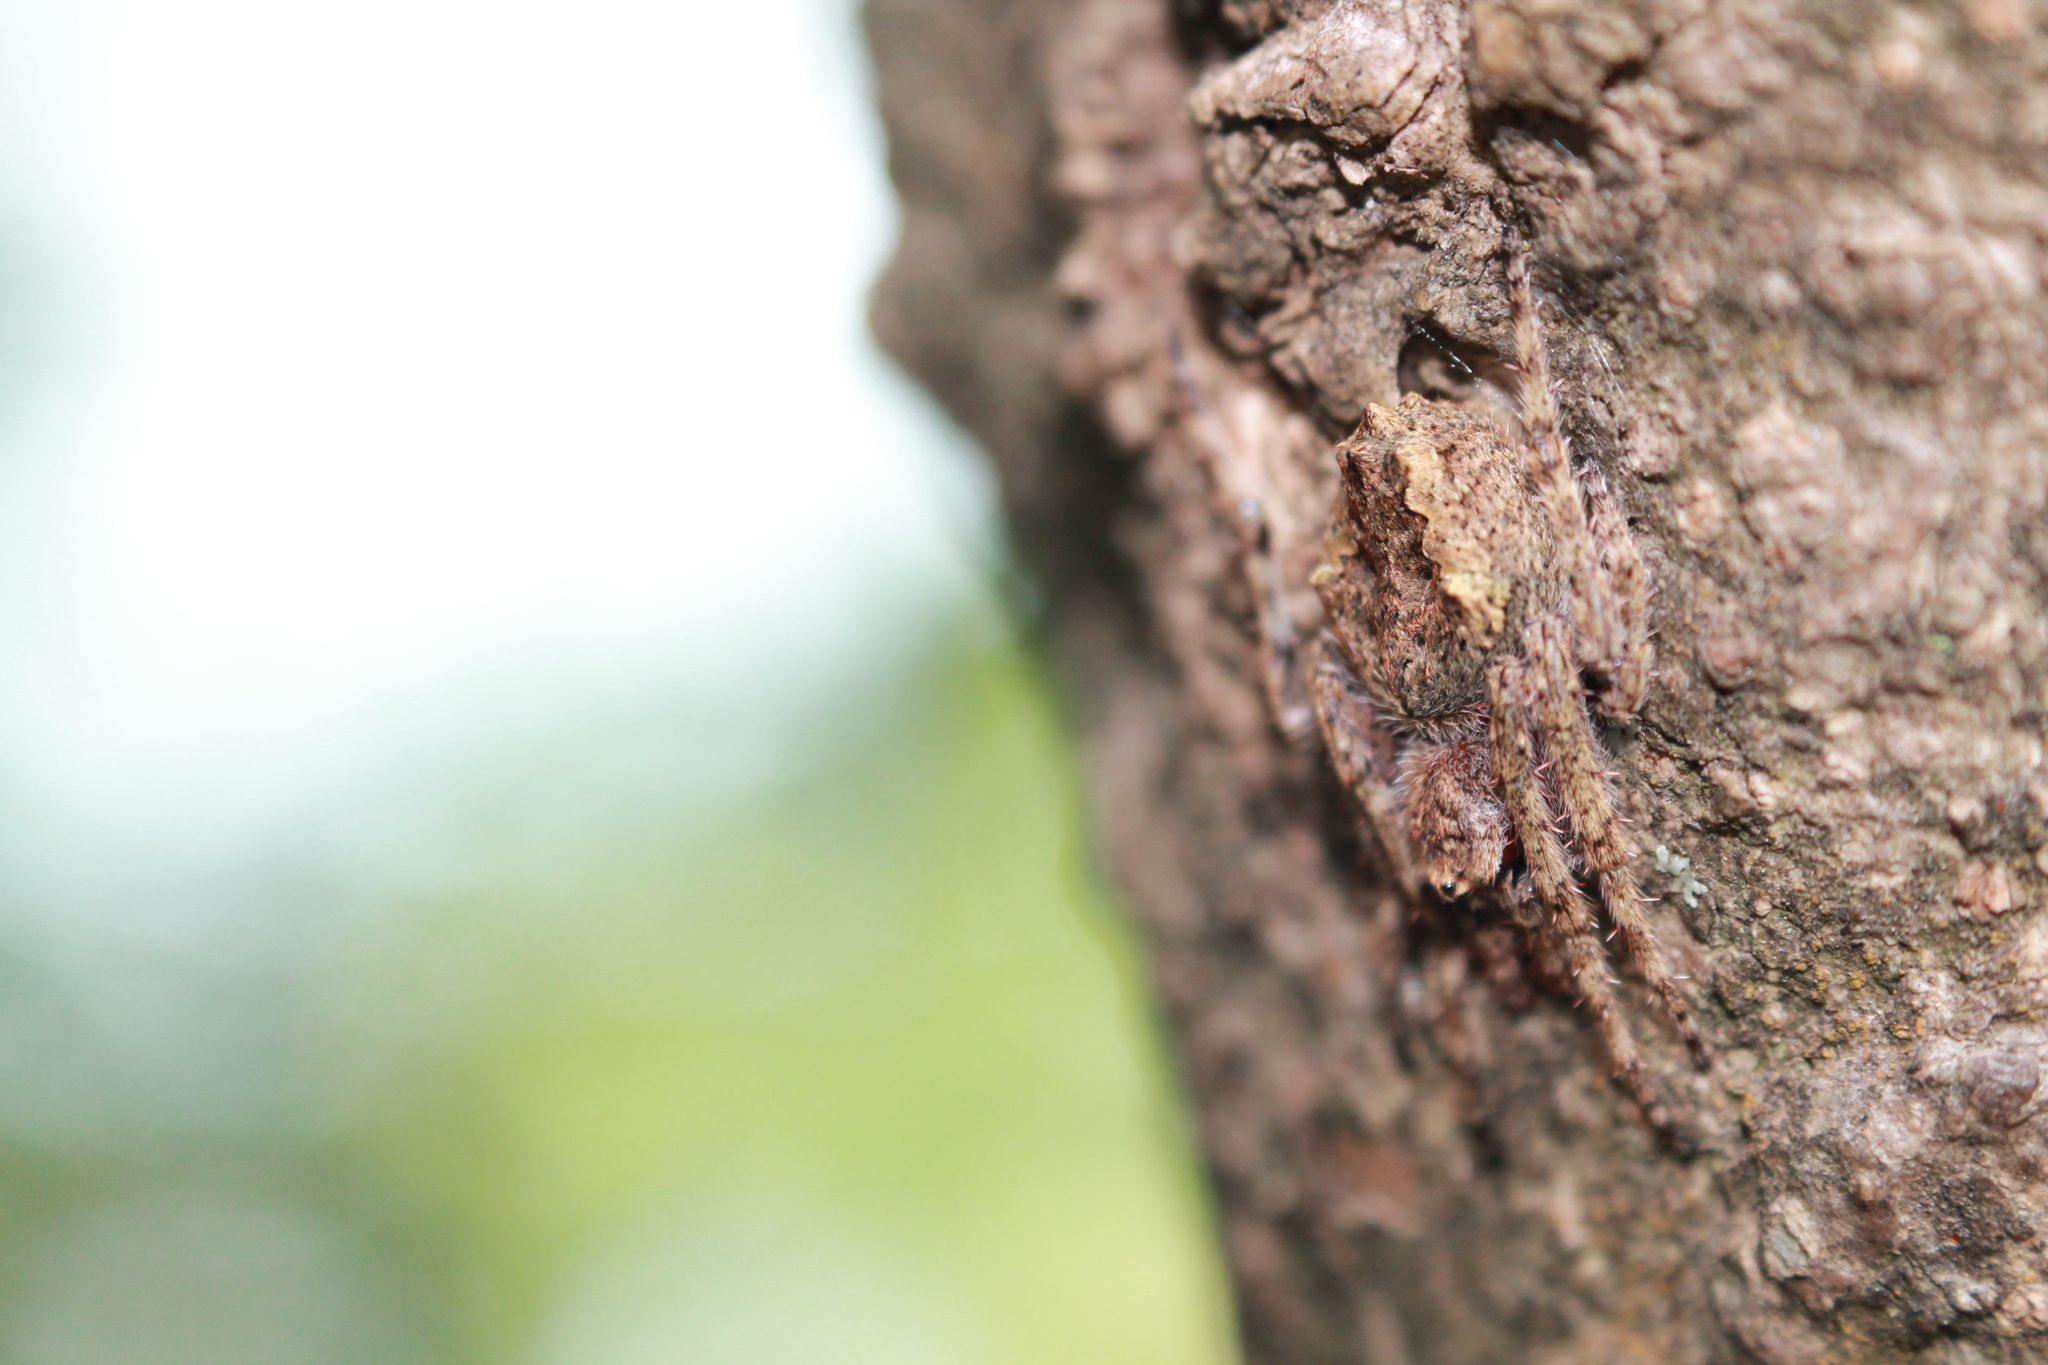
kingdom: Animalia
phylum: Arthropoda
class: Arachnida
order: Araneae
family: Araneidae
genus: Eriophora
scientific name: Eriophora pustulosa
